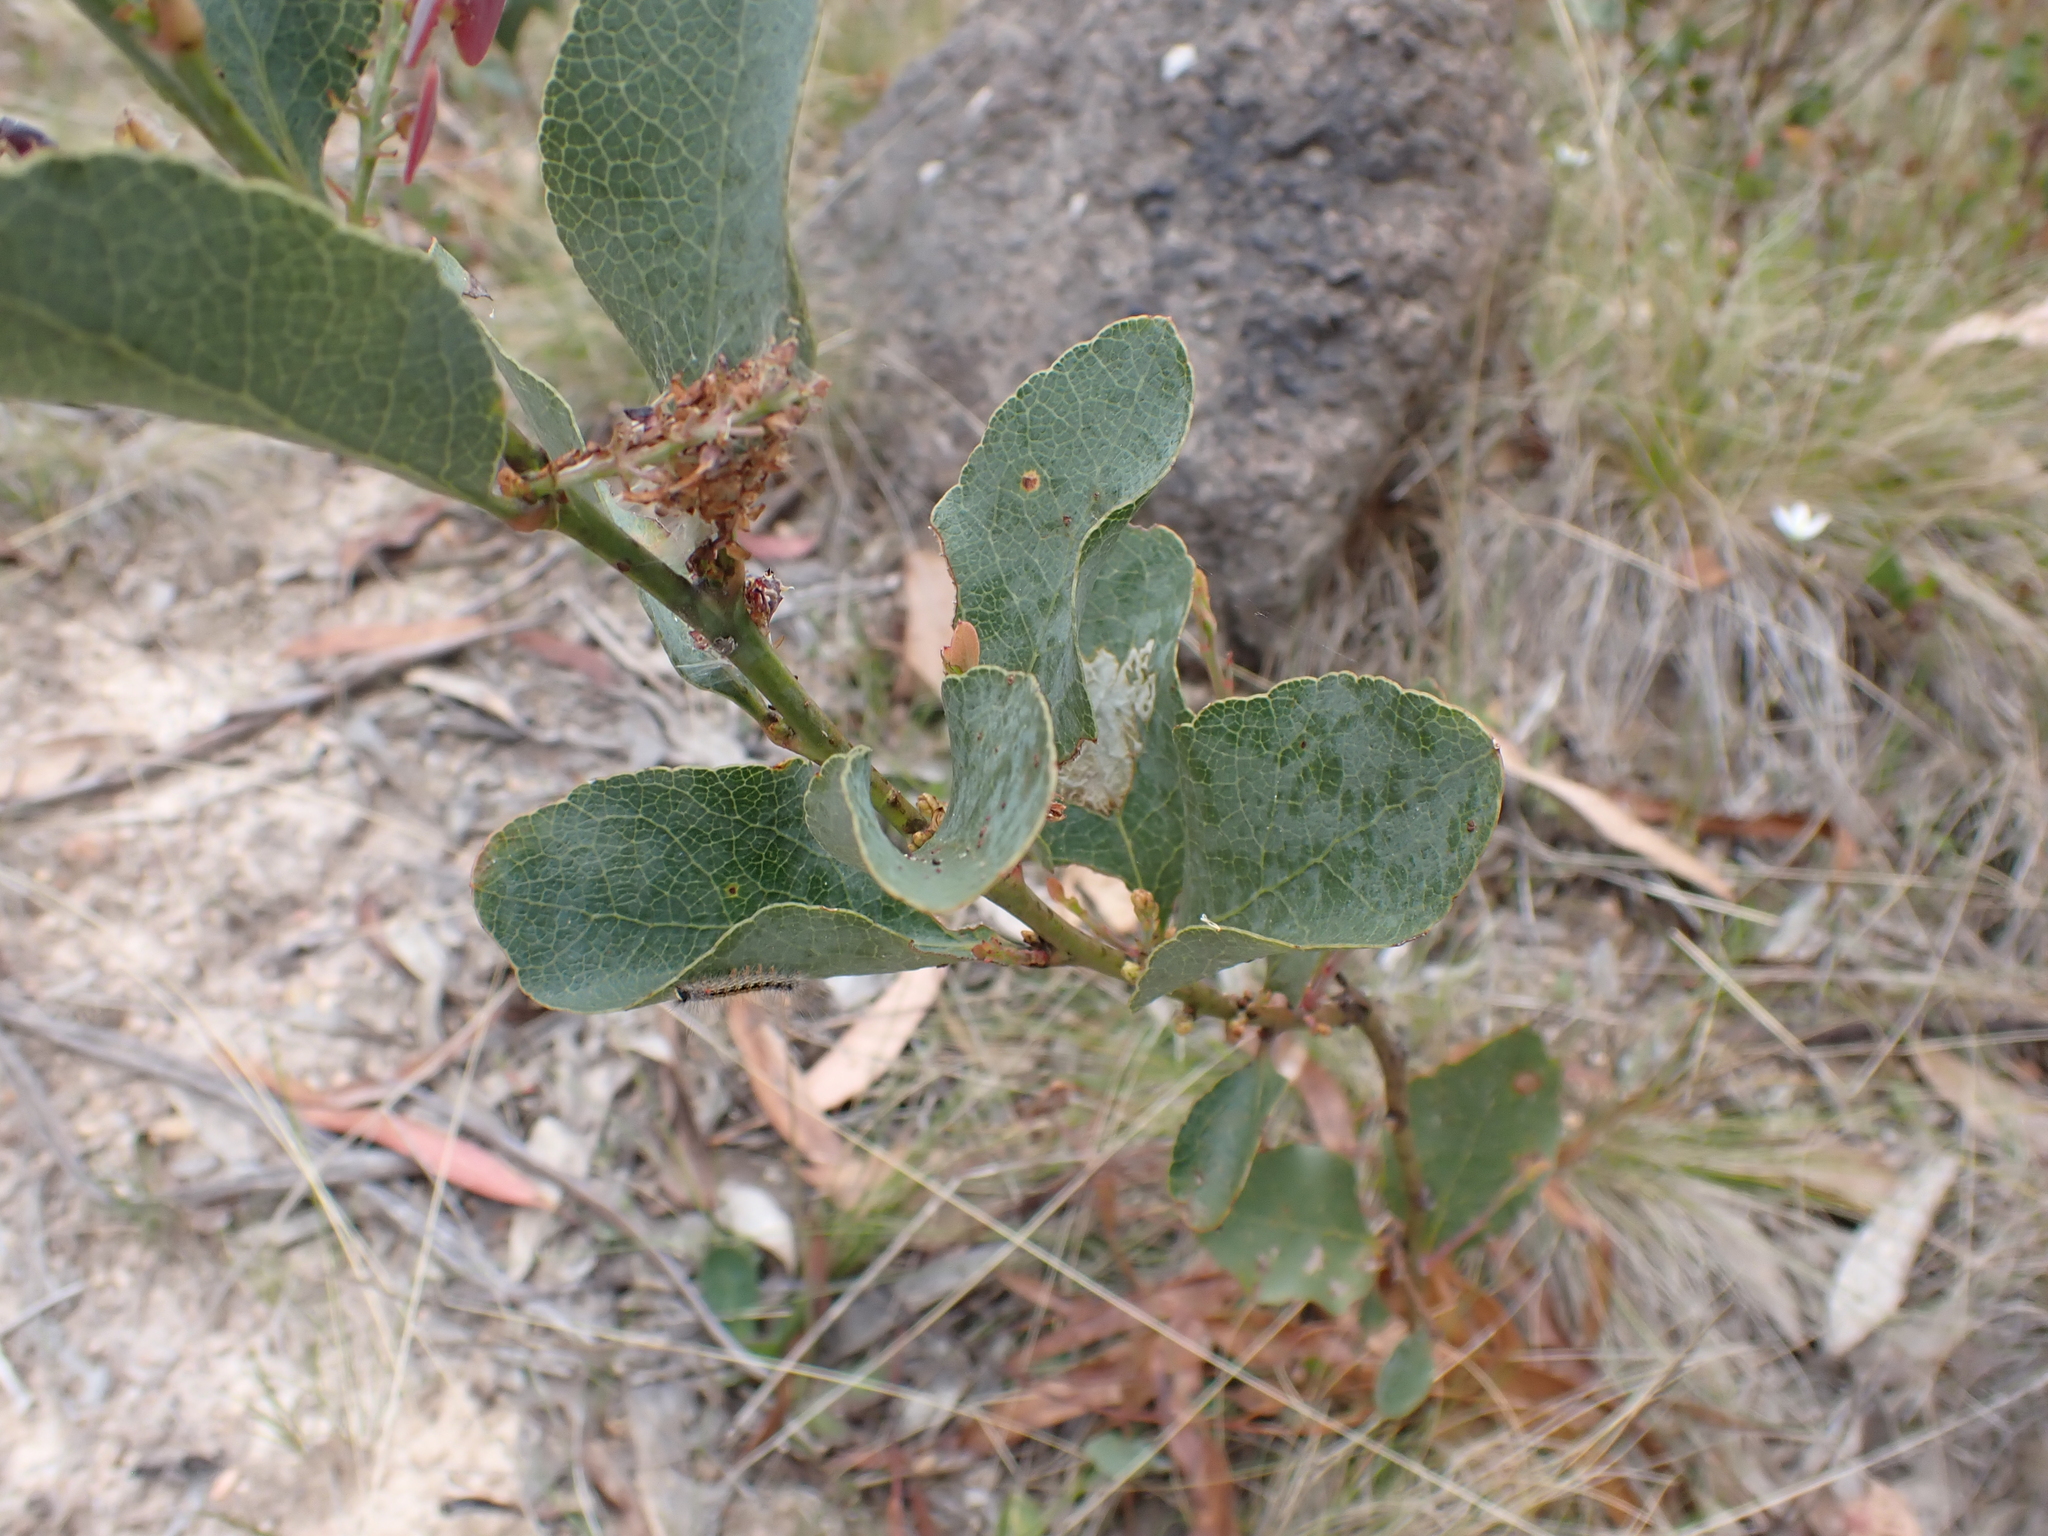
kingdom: Plantae
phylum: Tracheophyta
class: Magnoliopsida
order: Fabales
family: Fabaceae
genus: Daviesia
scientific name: Daviesia latifolia
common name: Hop bitter-pea
